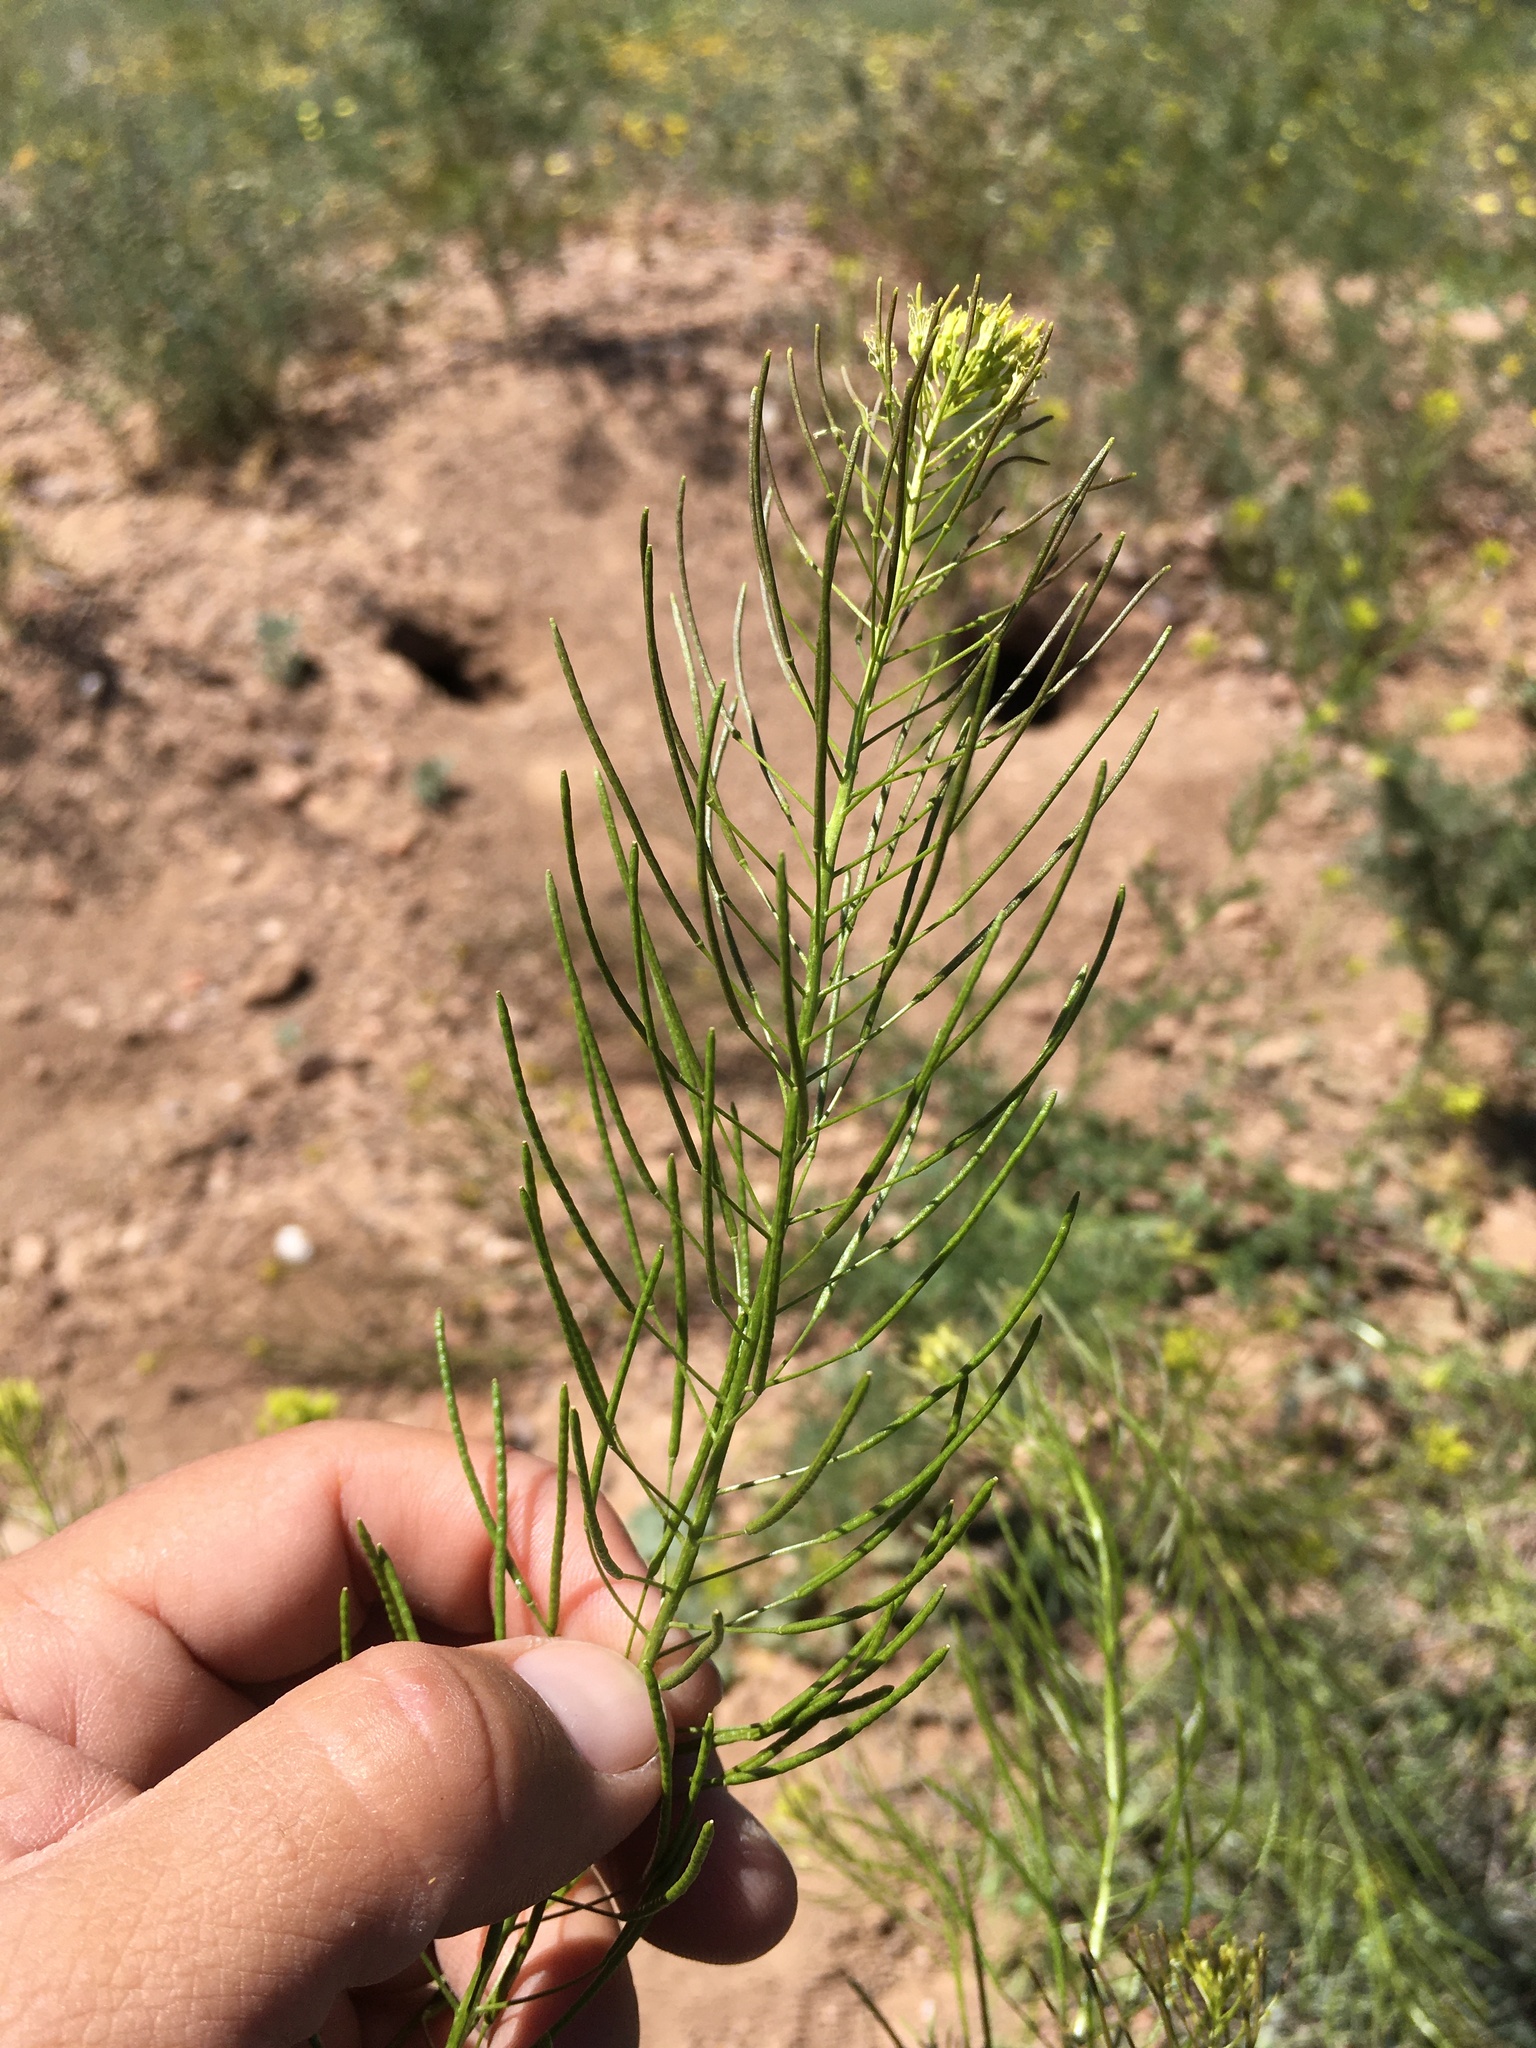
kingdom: Plantae
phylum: Tracheophyta
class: Magnoliopsida
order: Brassicales
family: Brassicaceae
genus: Descurainia
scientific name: Descurainia sophia
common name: Flixweed
